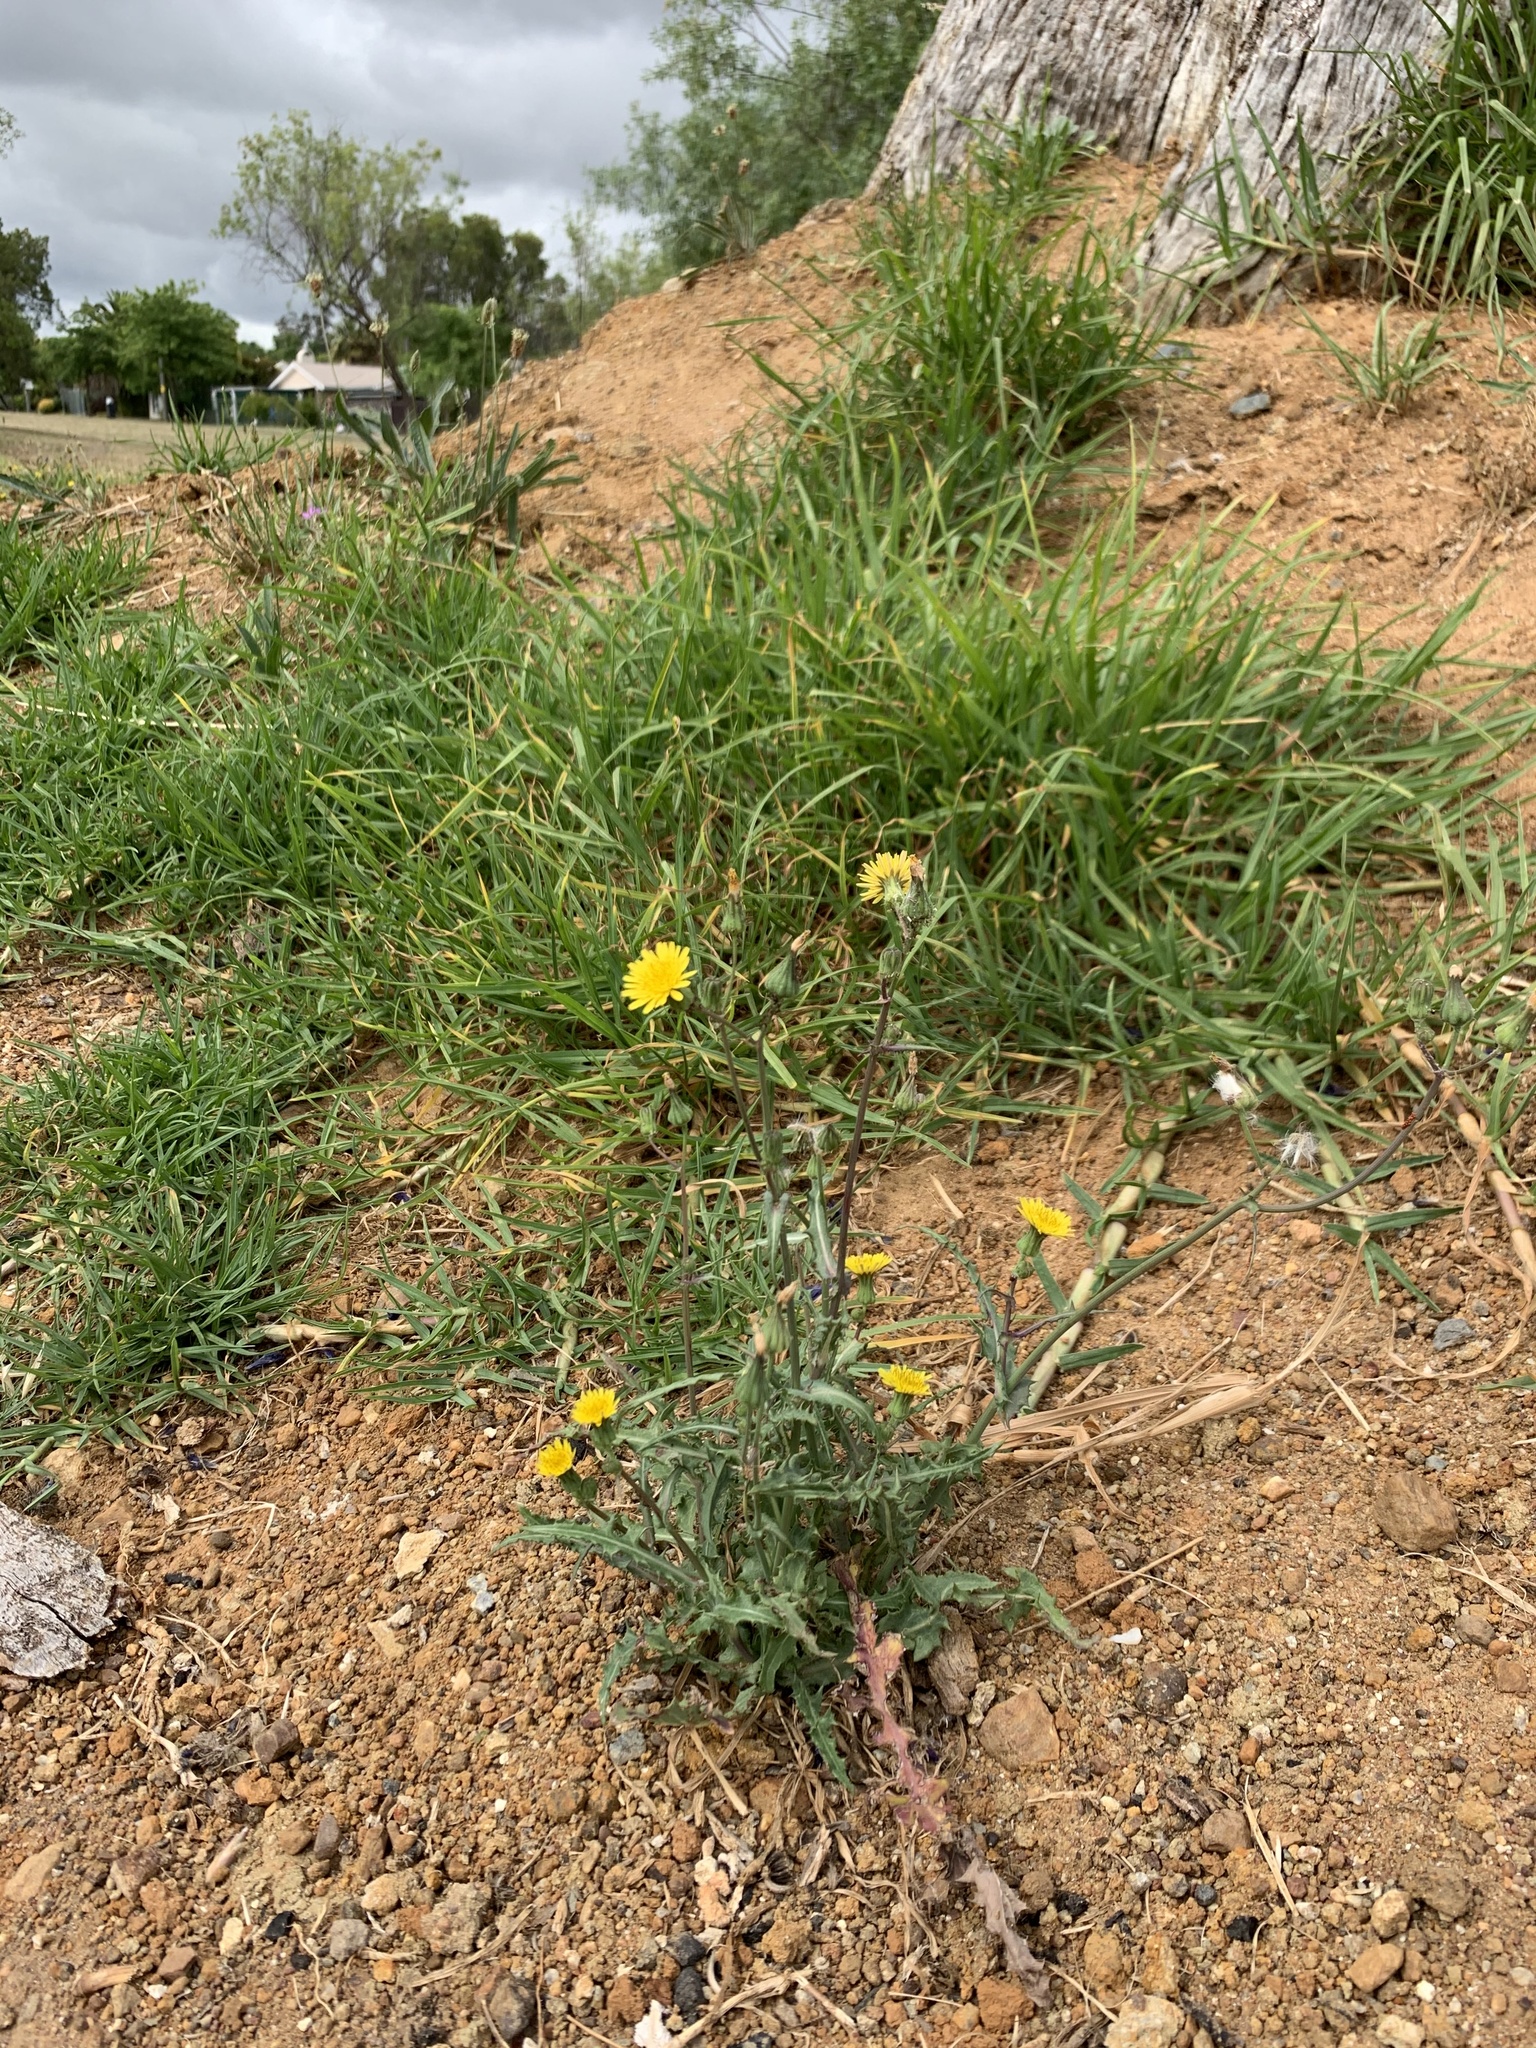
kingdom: Plantae
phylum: Tracheophyta
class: Magnoliopsida
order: Asterales
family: Asteraceae
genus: Hedypnois
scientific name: Hedypnois rhagadioloides
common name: Cretan weed
